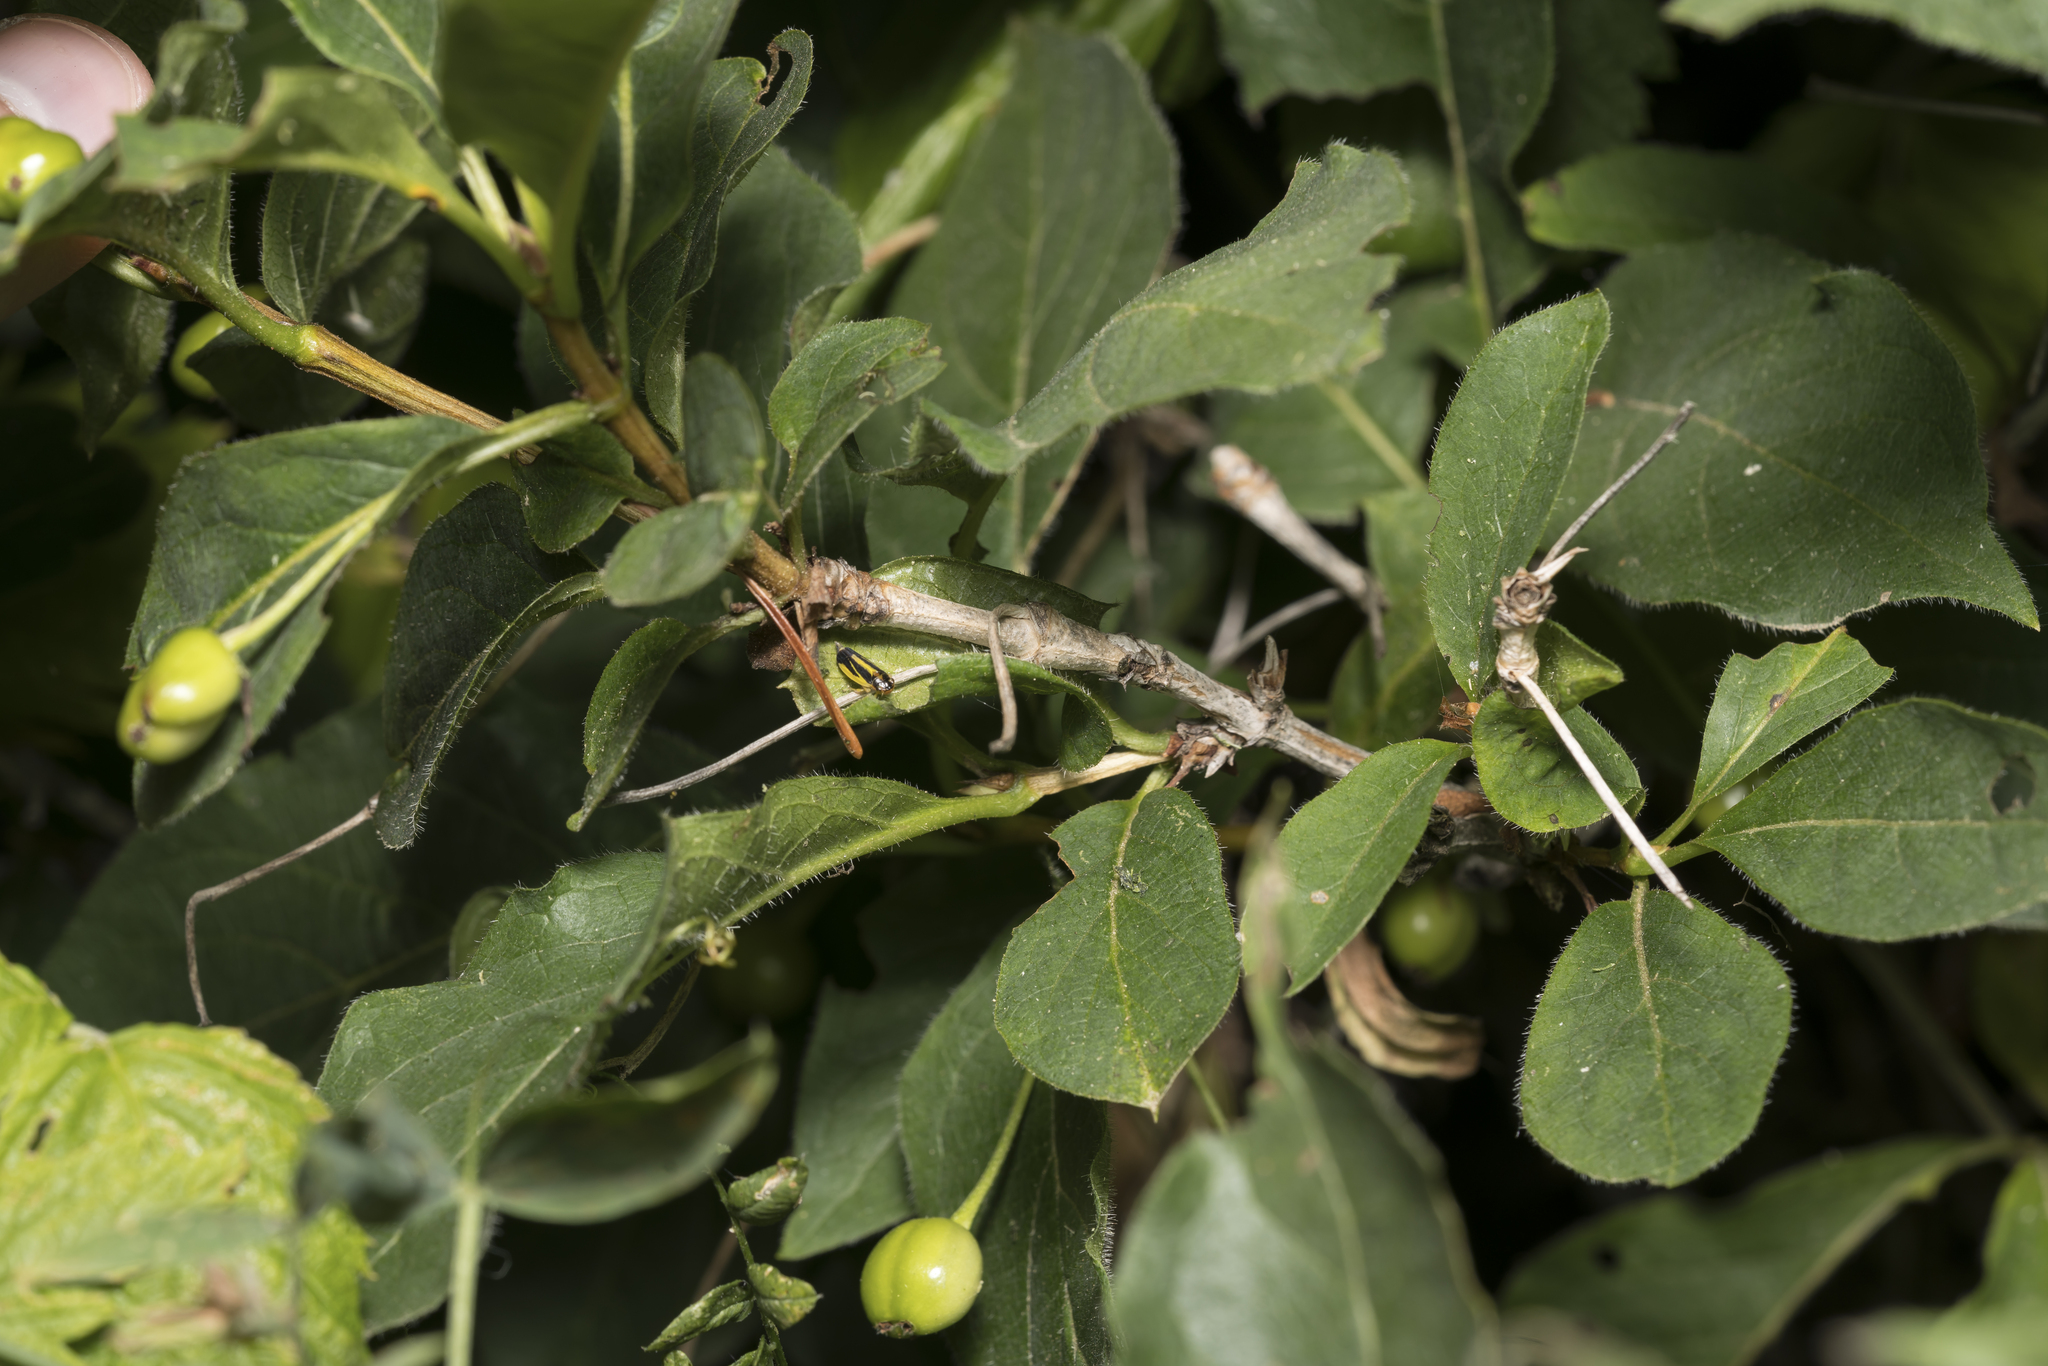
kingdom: Plantae
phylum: Tracheophyta
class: Magnoliopsida
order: Dipsacales
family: Caprifoliaceae
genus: Lonicera
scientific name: Lonicera alpigena
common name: Alpine honeysuckle
